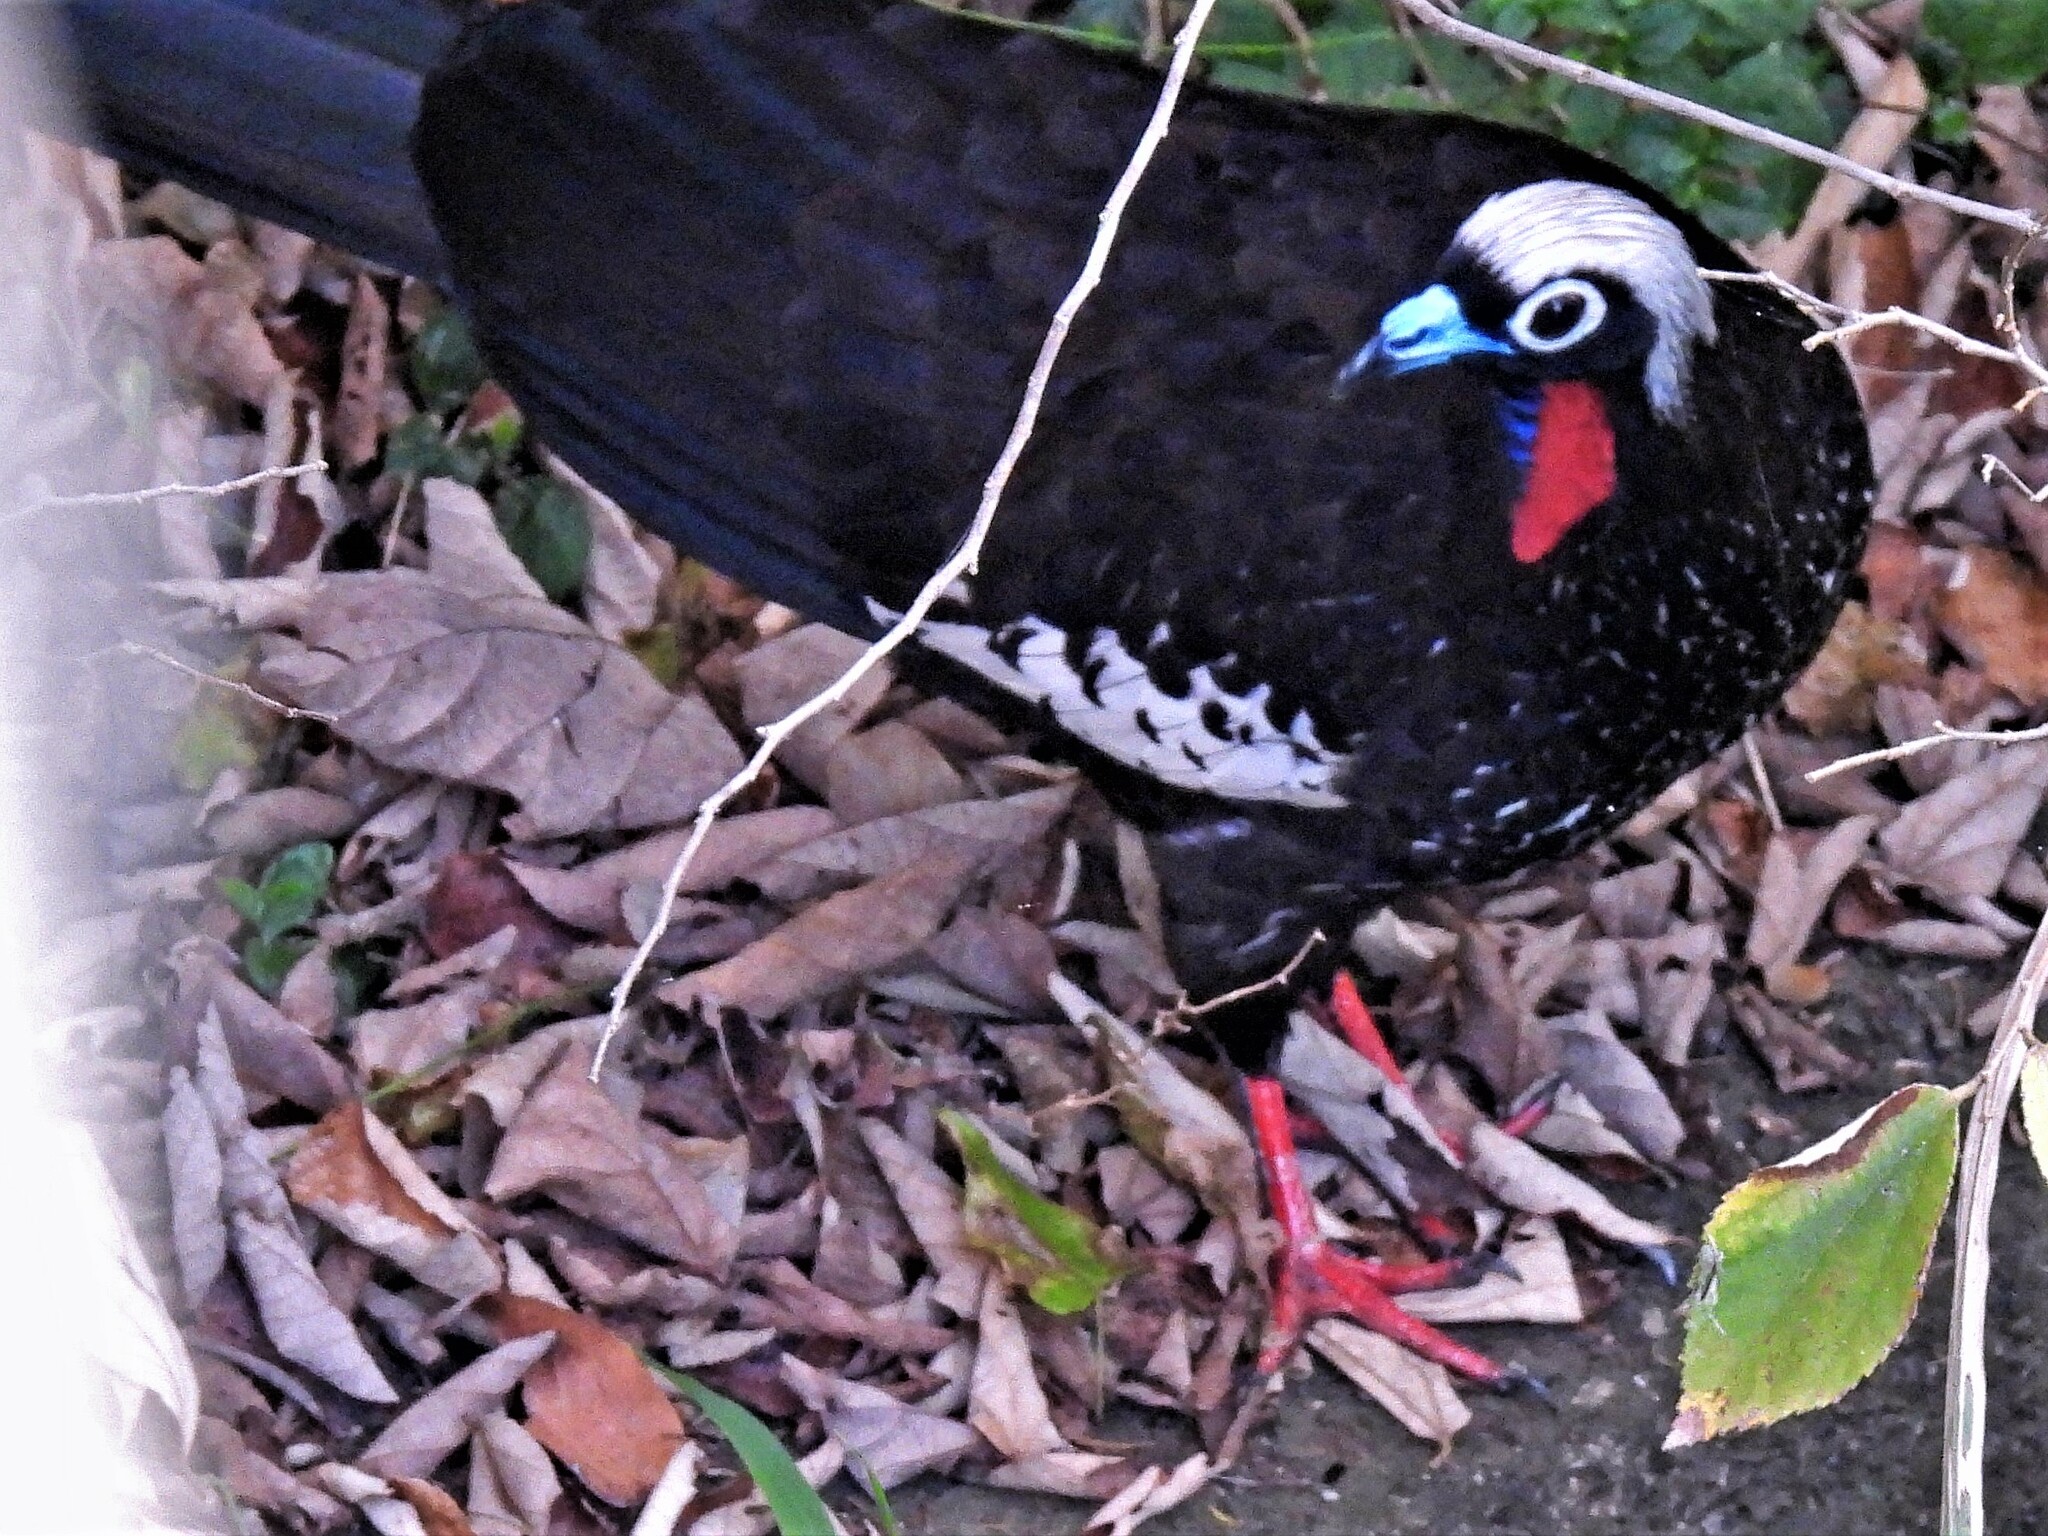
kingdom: Animalia
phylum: Chordata
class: Aves
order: Galliformes
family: Cracidae
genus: Pipile
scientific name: Pipile jacutinga
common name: Black-fronted piping-guan
